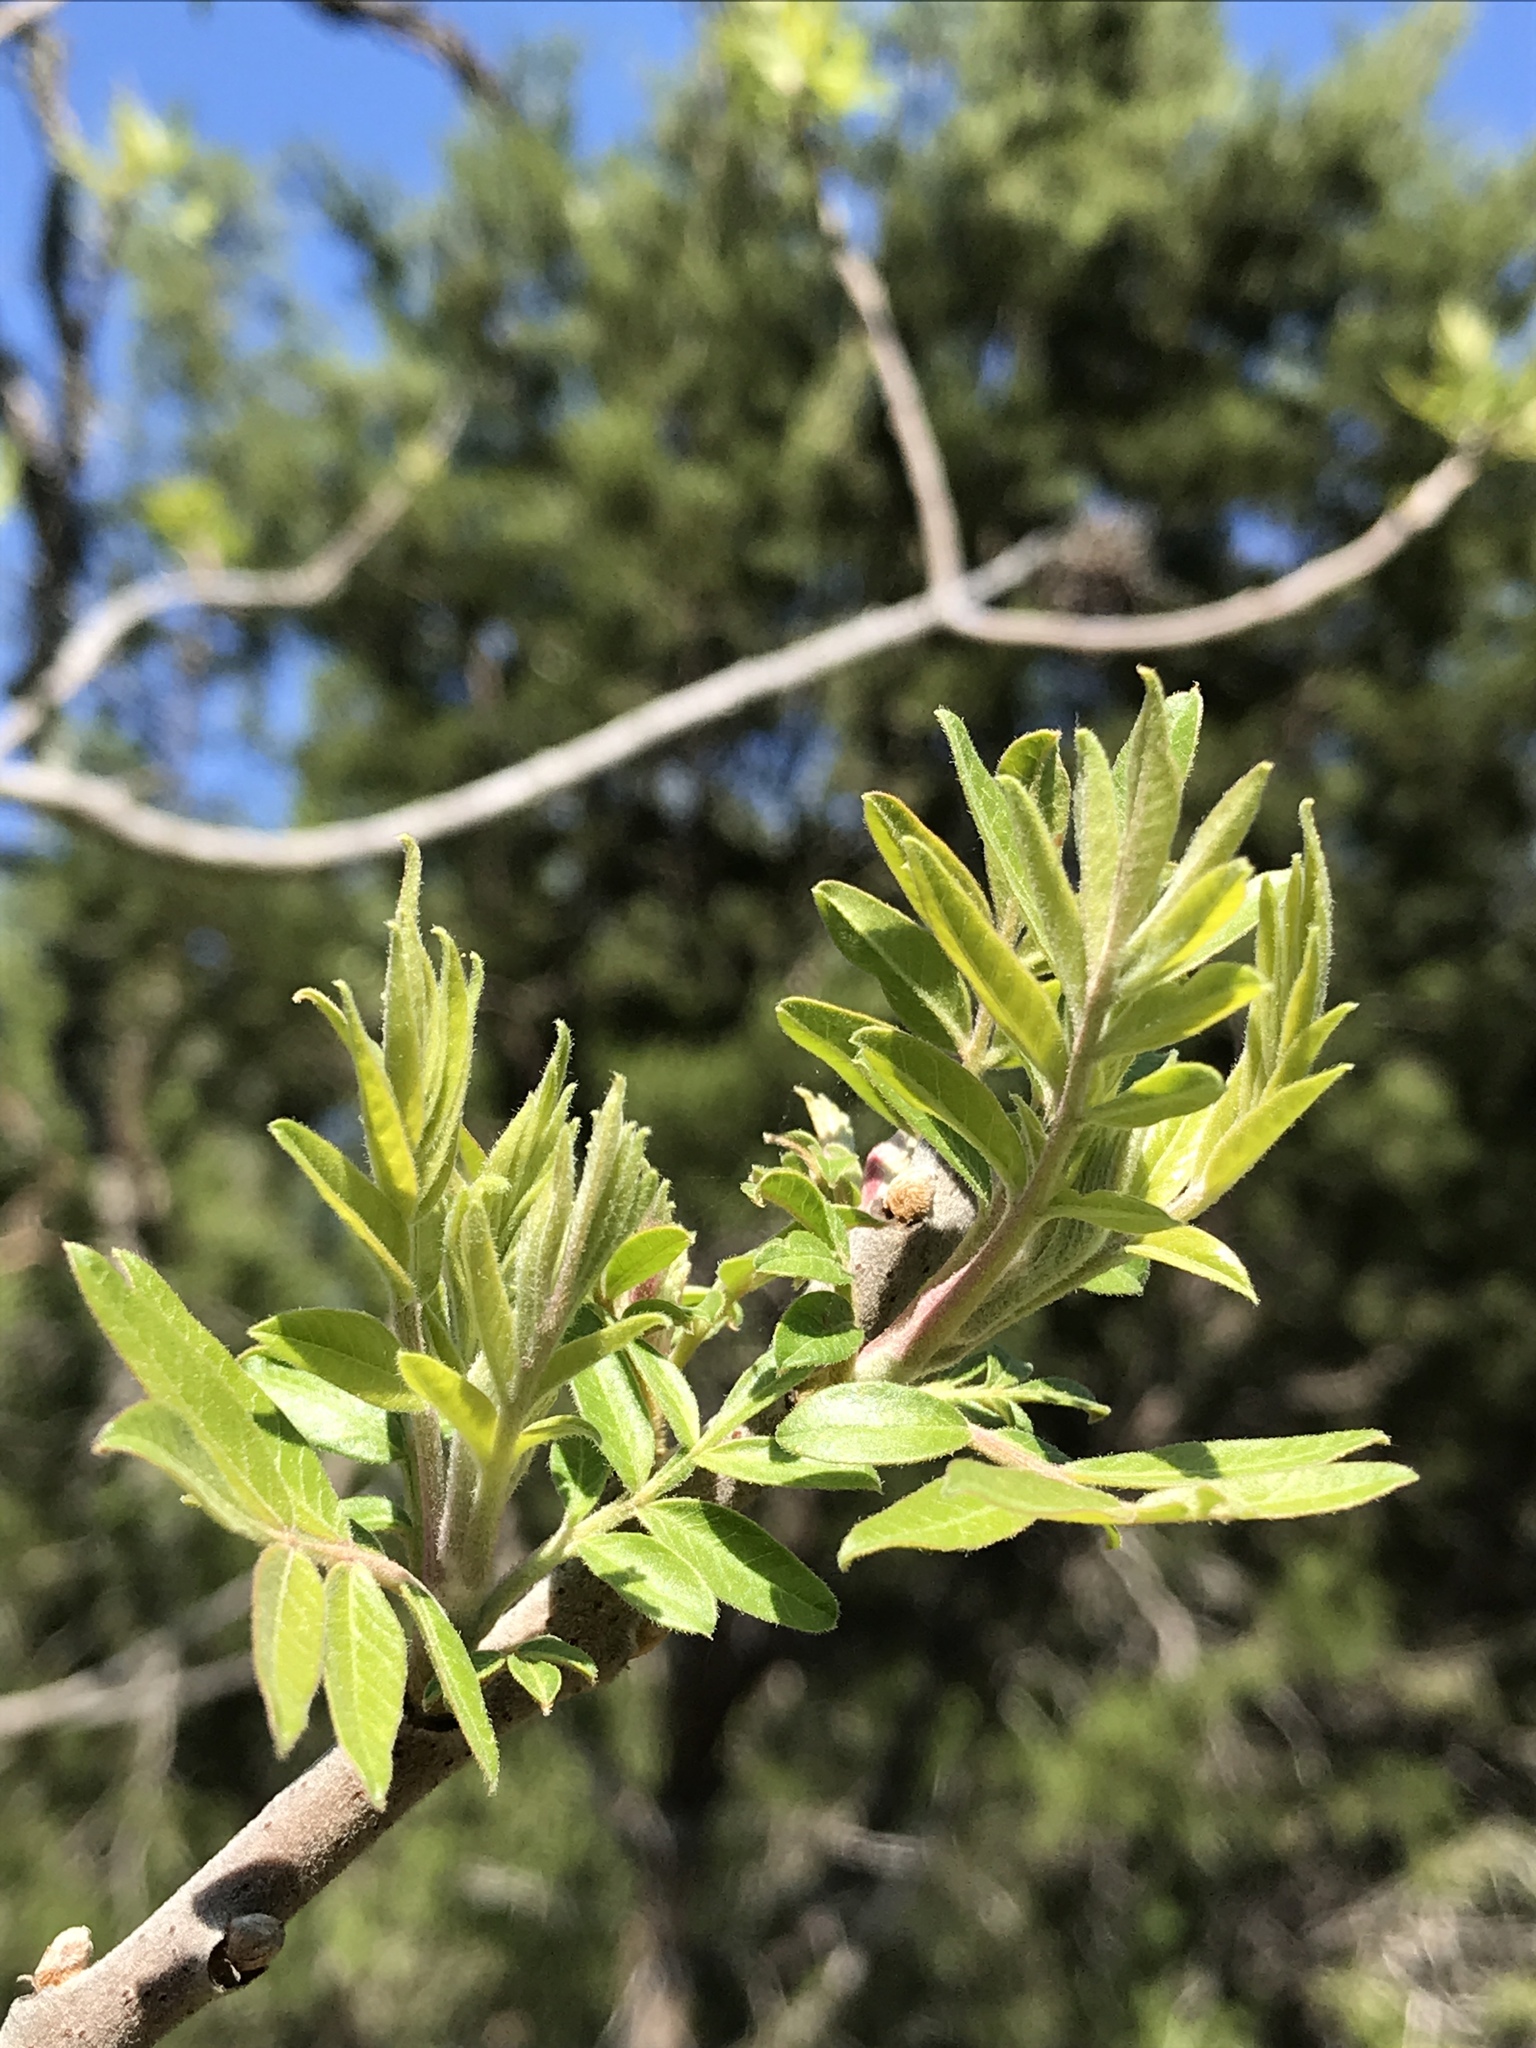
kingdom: Plantae
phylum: Tracheophyta
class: Magnoliopsida
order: Sapindales
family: Anacardiaceae
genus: Rhus
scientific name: Rhus lanceolata
